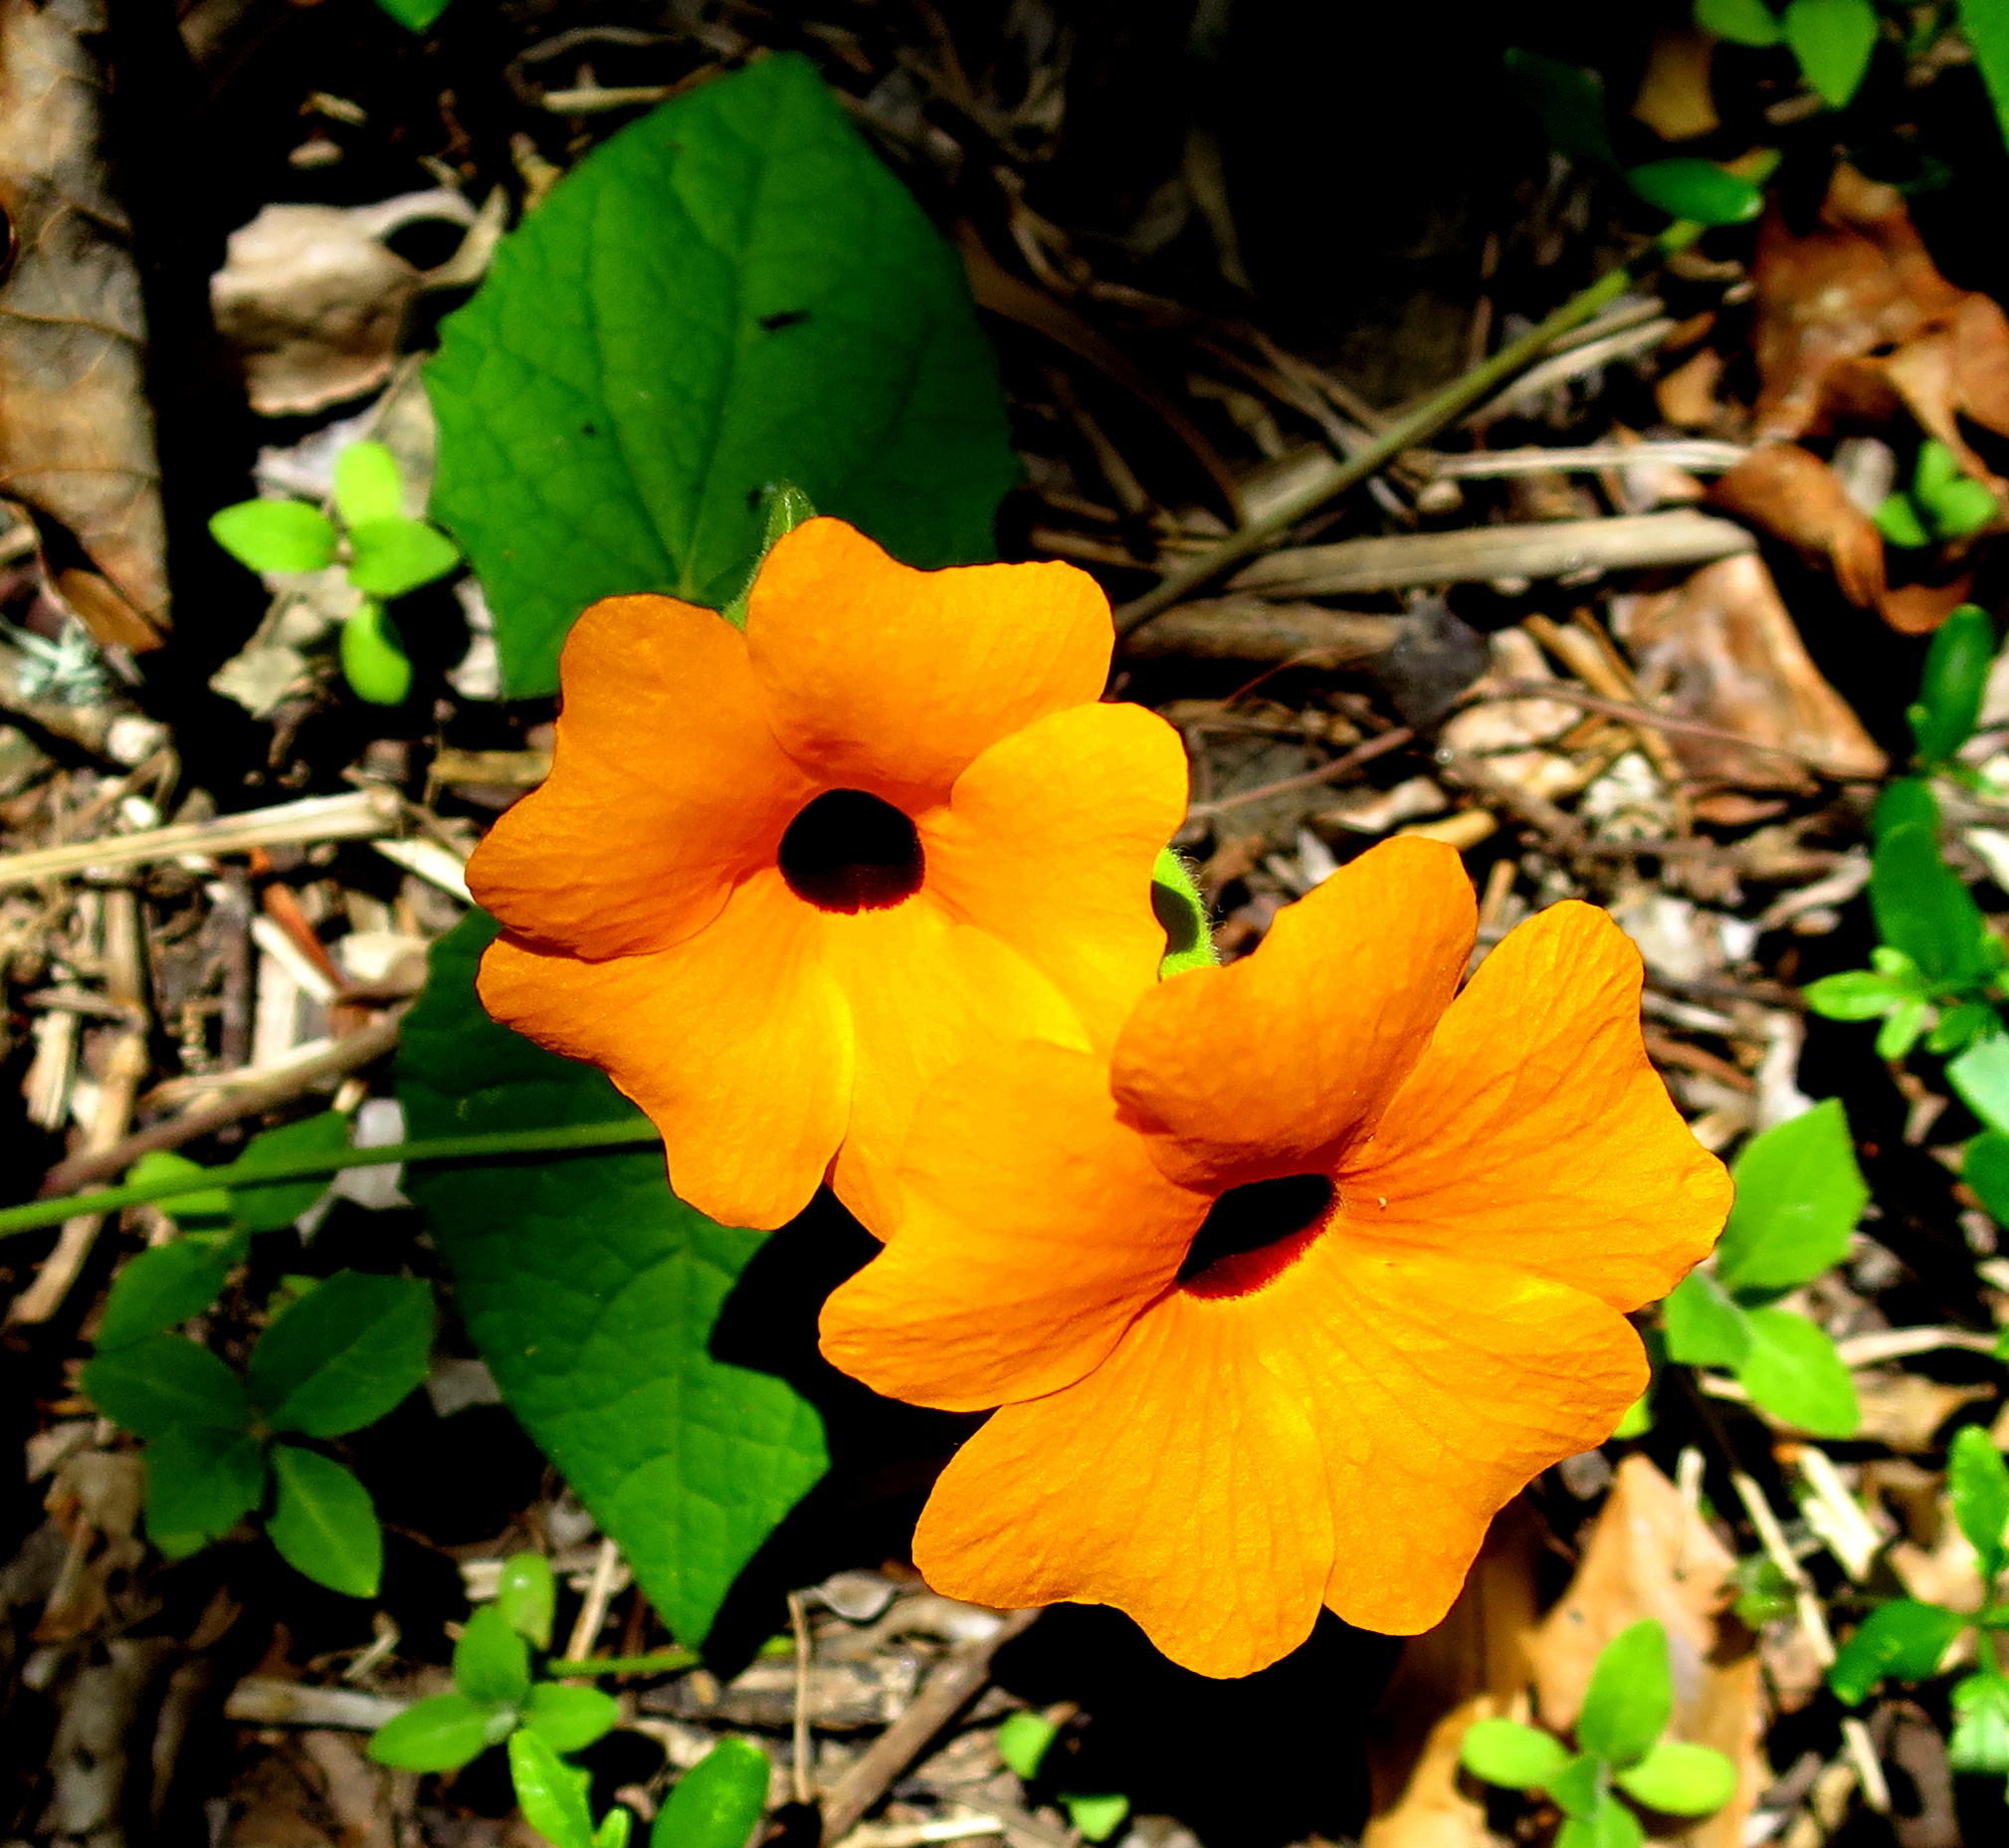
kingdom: Plantae
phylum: Tracheophyta
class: Magnoliopsida
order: Lamiales
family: Acanthaceae
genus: Thunbergia
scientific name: Thunbergia alata
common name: Blackeyed susan vine
